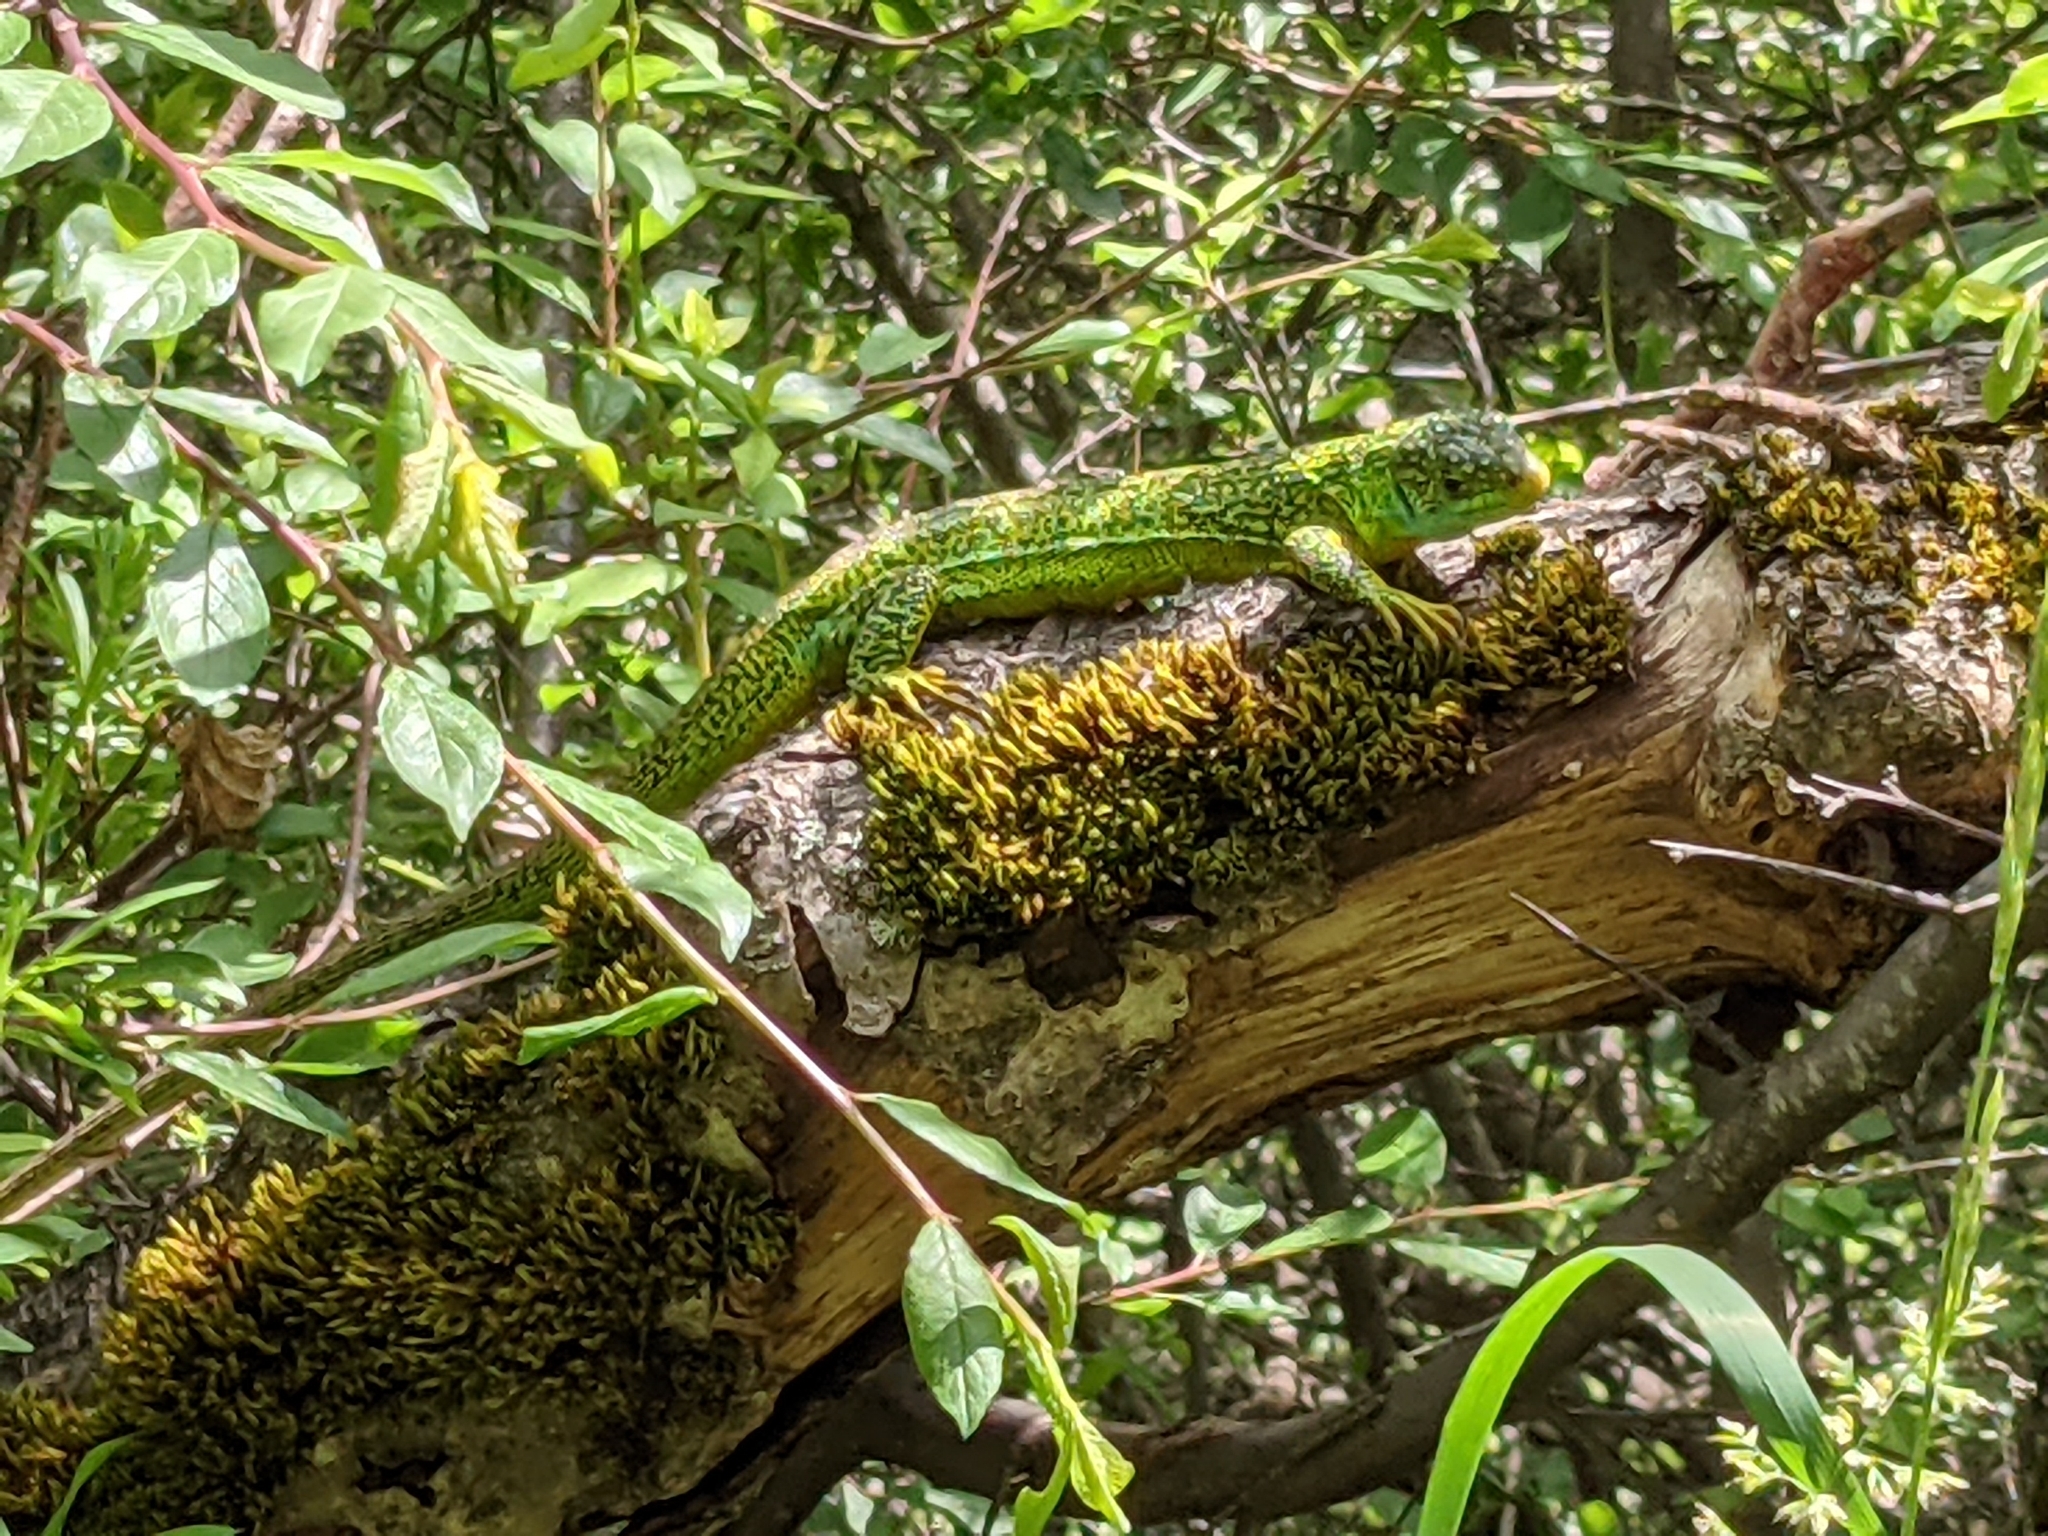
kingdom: Animalia
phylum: Chordata
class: Squamata
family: Lacertidae
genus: Lacerta
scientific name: Lacerta bilineata
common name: Western green lizard
